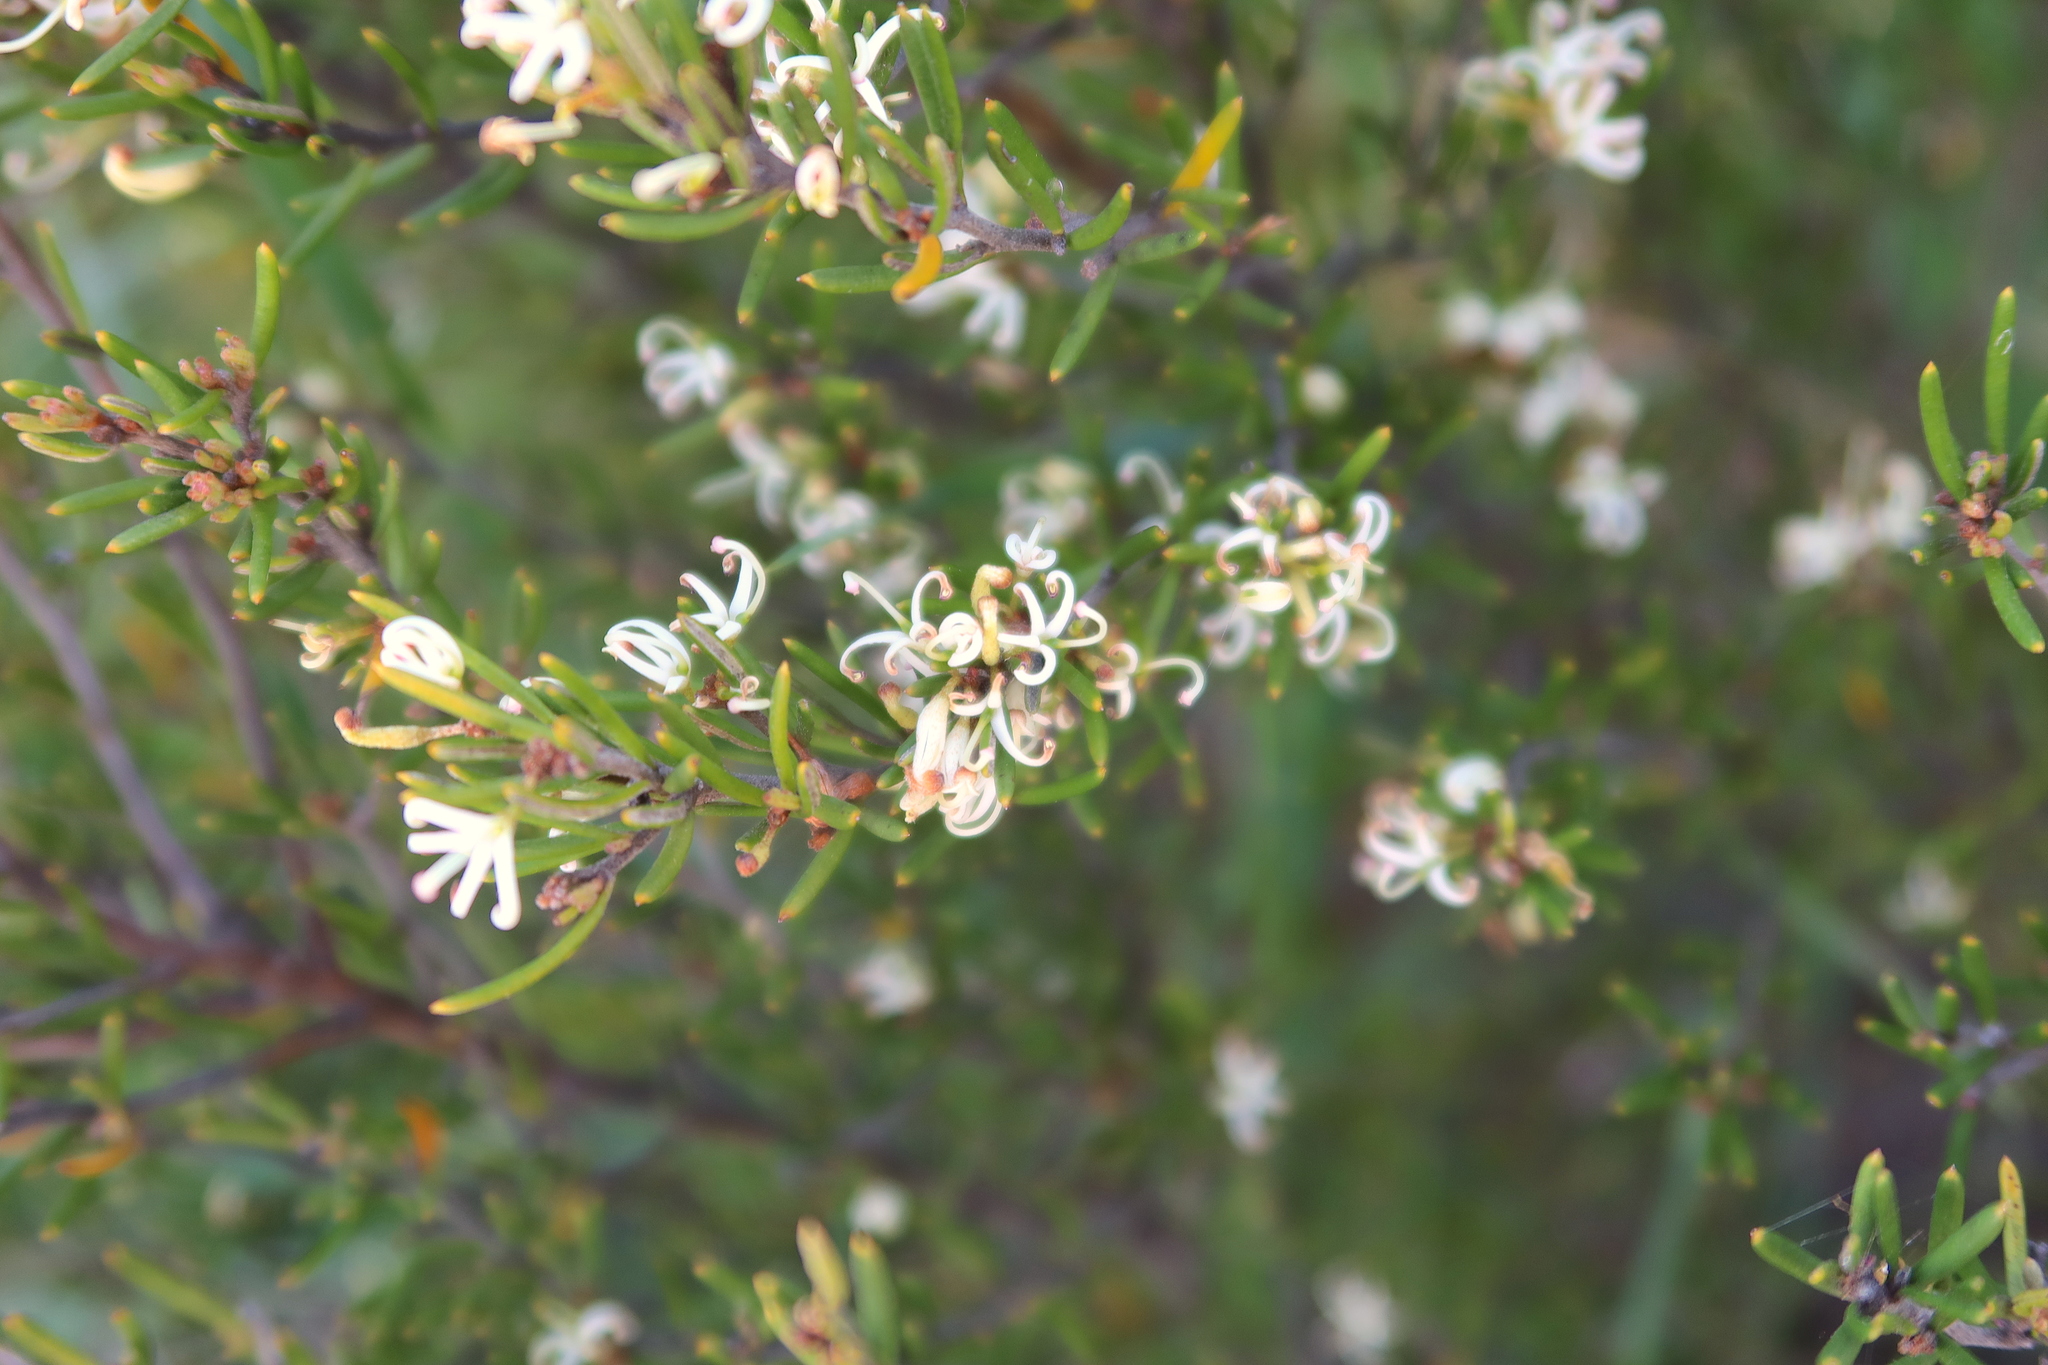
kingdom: Plantae
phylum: Tracheophyta
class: Magnoliopsida
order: Proteales
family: Proteaceae
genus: Grevillea
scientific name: Grevillea australis
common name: Alpine grevillea
